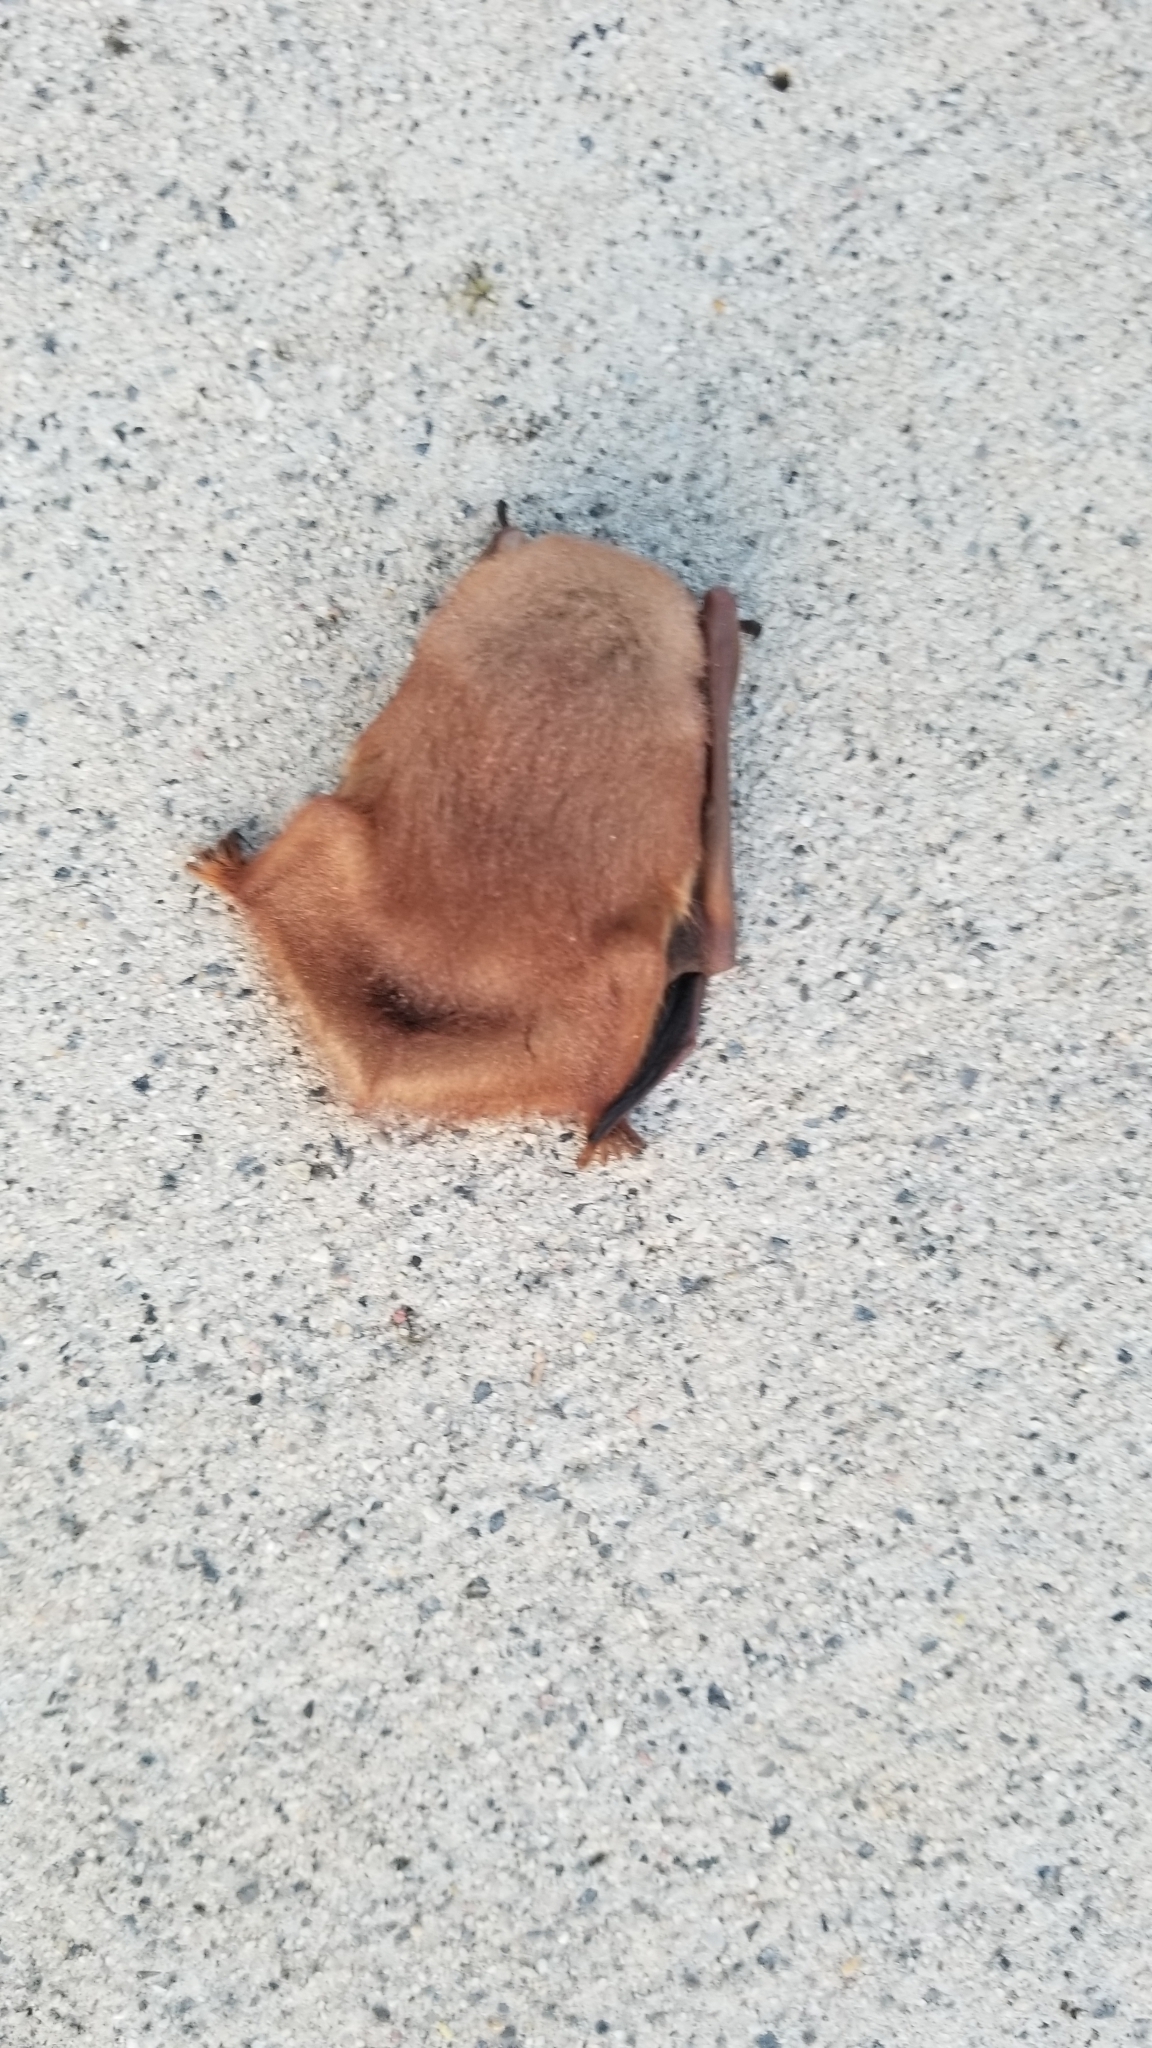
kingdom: Animalia
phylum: Chordata
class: Mammalia
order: Chiroptera
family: Vespertilionidae
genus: Lasiurus
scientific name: Lasiurus borealis
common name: Eastern red bat
